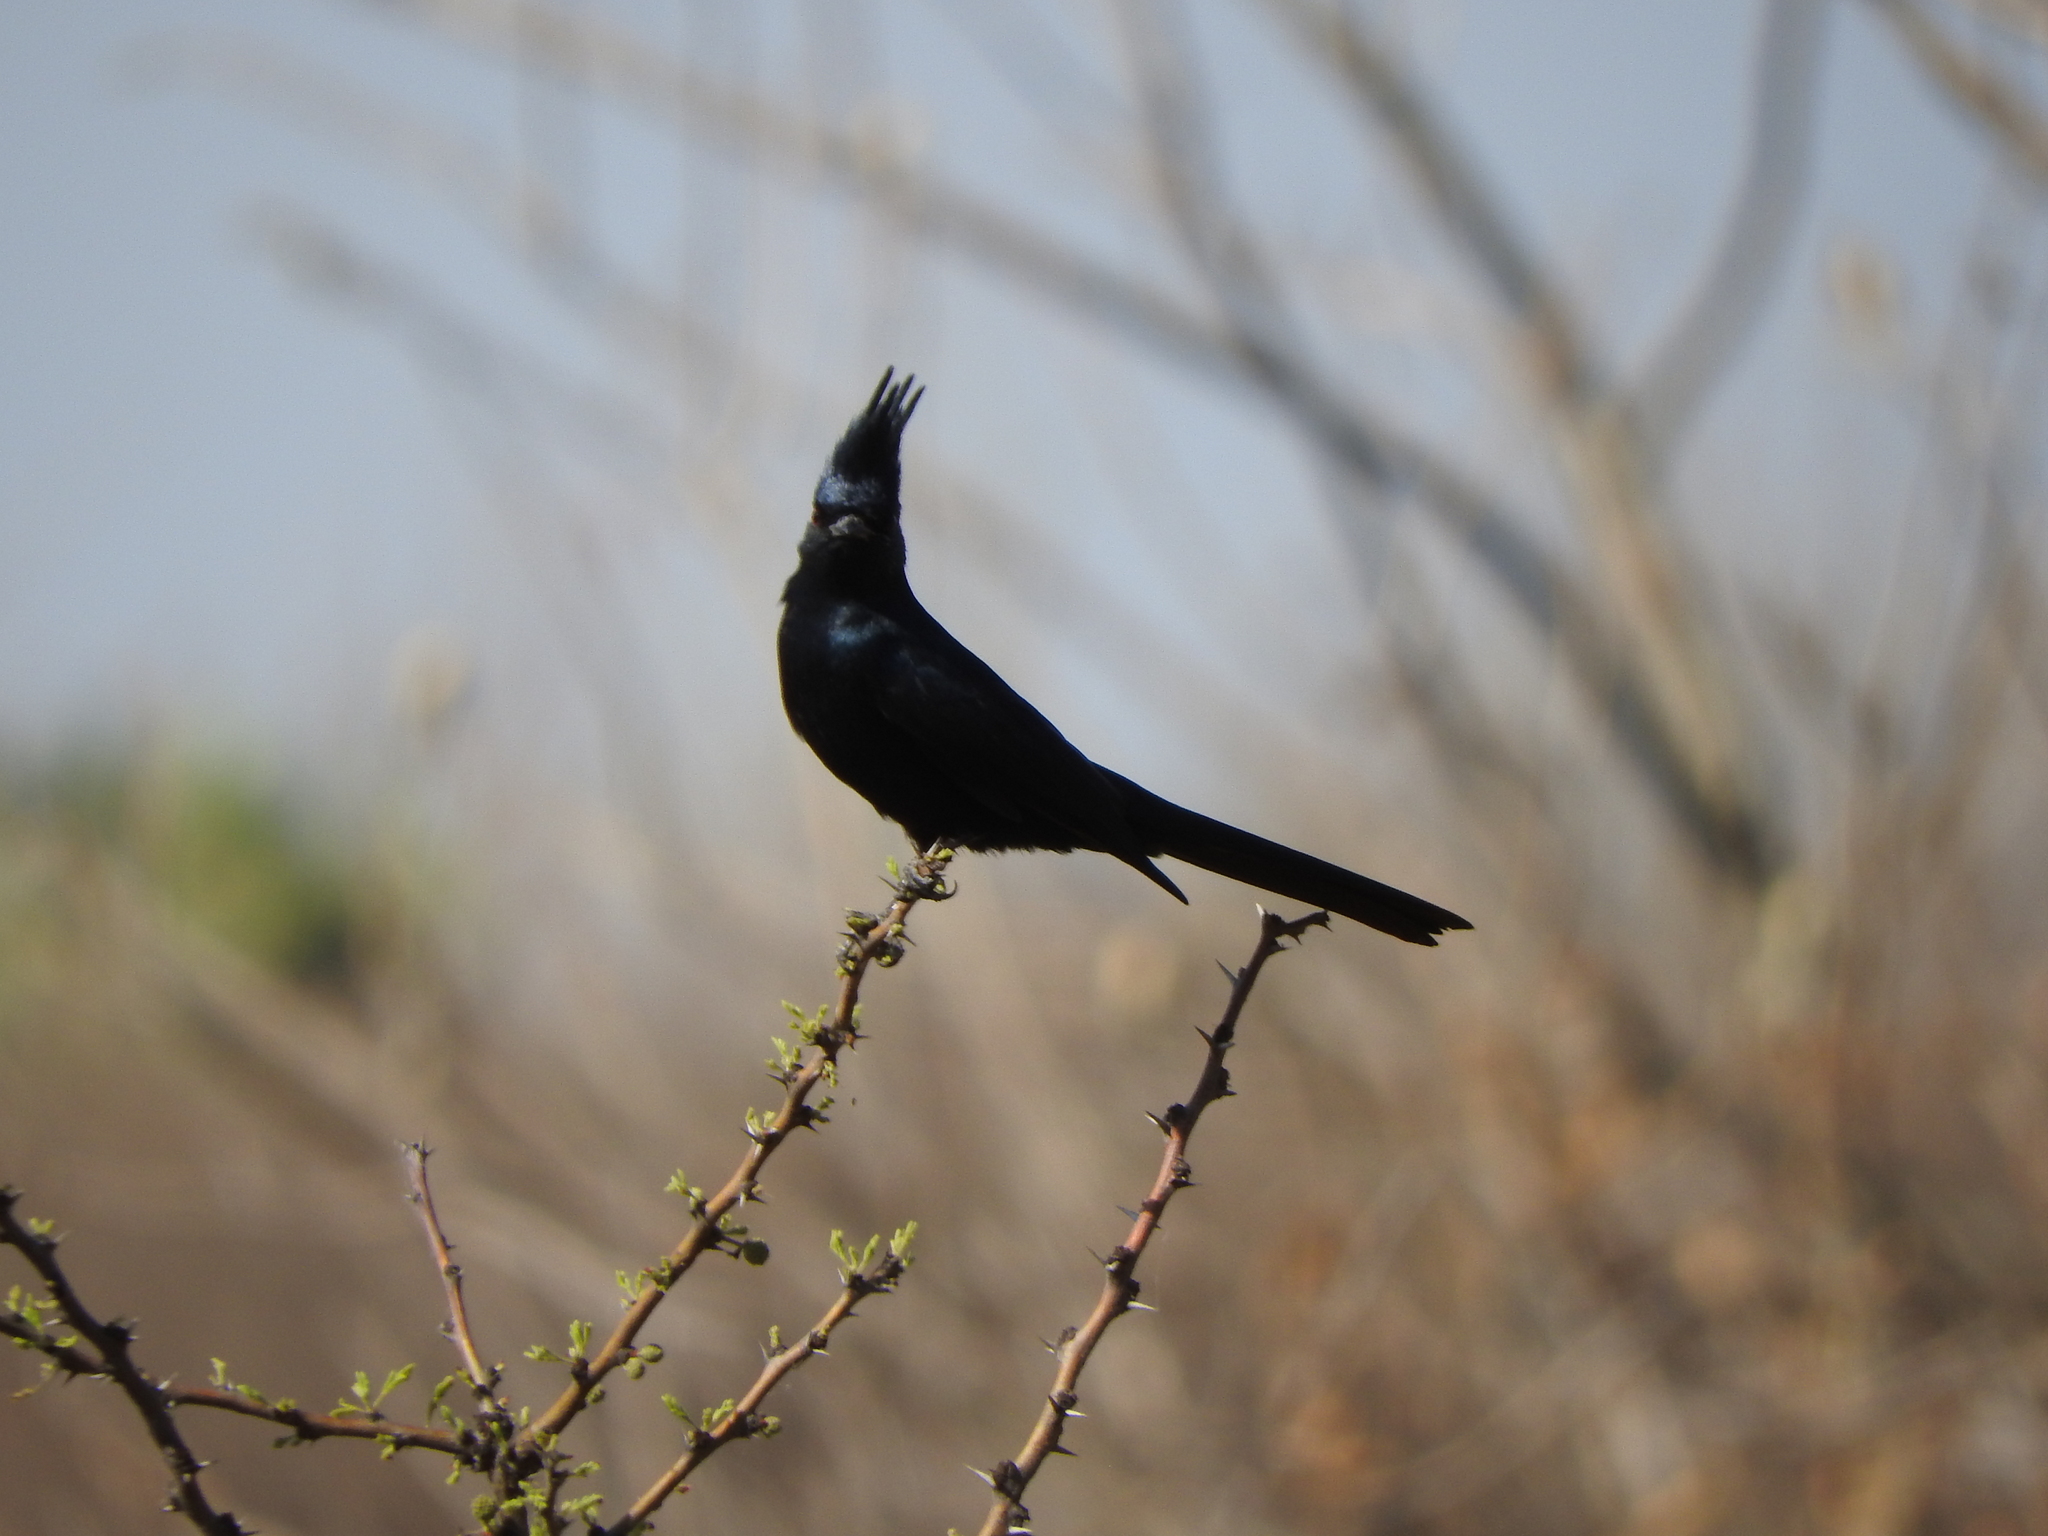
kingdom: Animalia
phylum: Chordata
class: Aves
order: Passeriformes
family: Ptilogonatidae
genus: Phainopepla
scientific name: Phainopepla nitens
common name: Phainopepla
